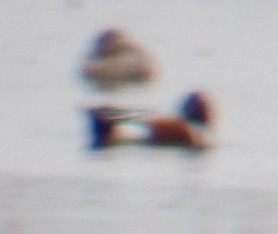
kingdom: Animalia
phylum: Chordata
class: Aves
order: Anseriformes
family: Anatidae
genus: Spatula
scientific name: Spatula clypeata
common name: Northern shoveler
